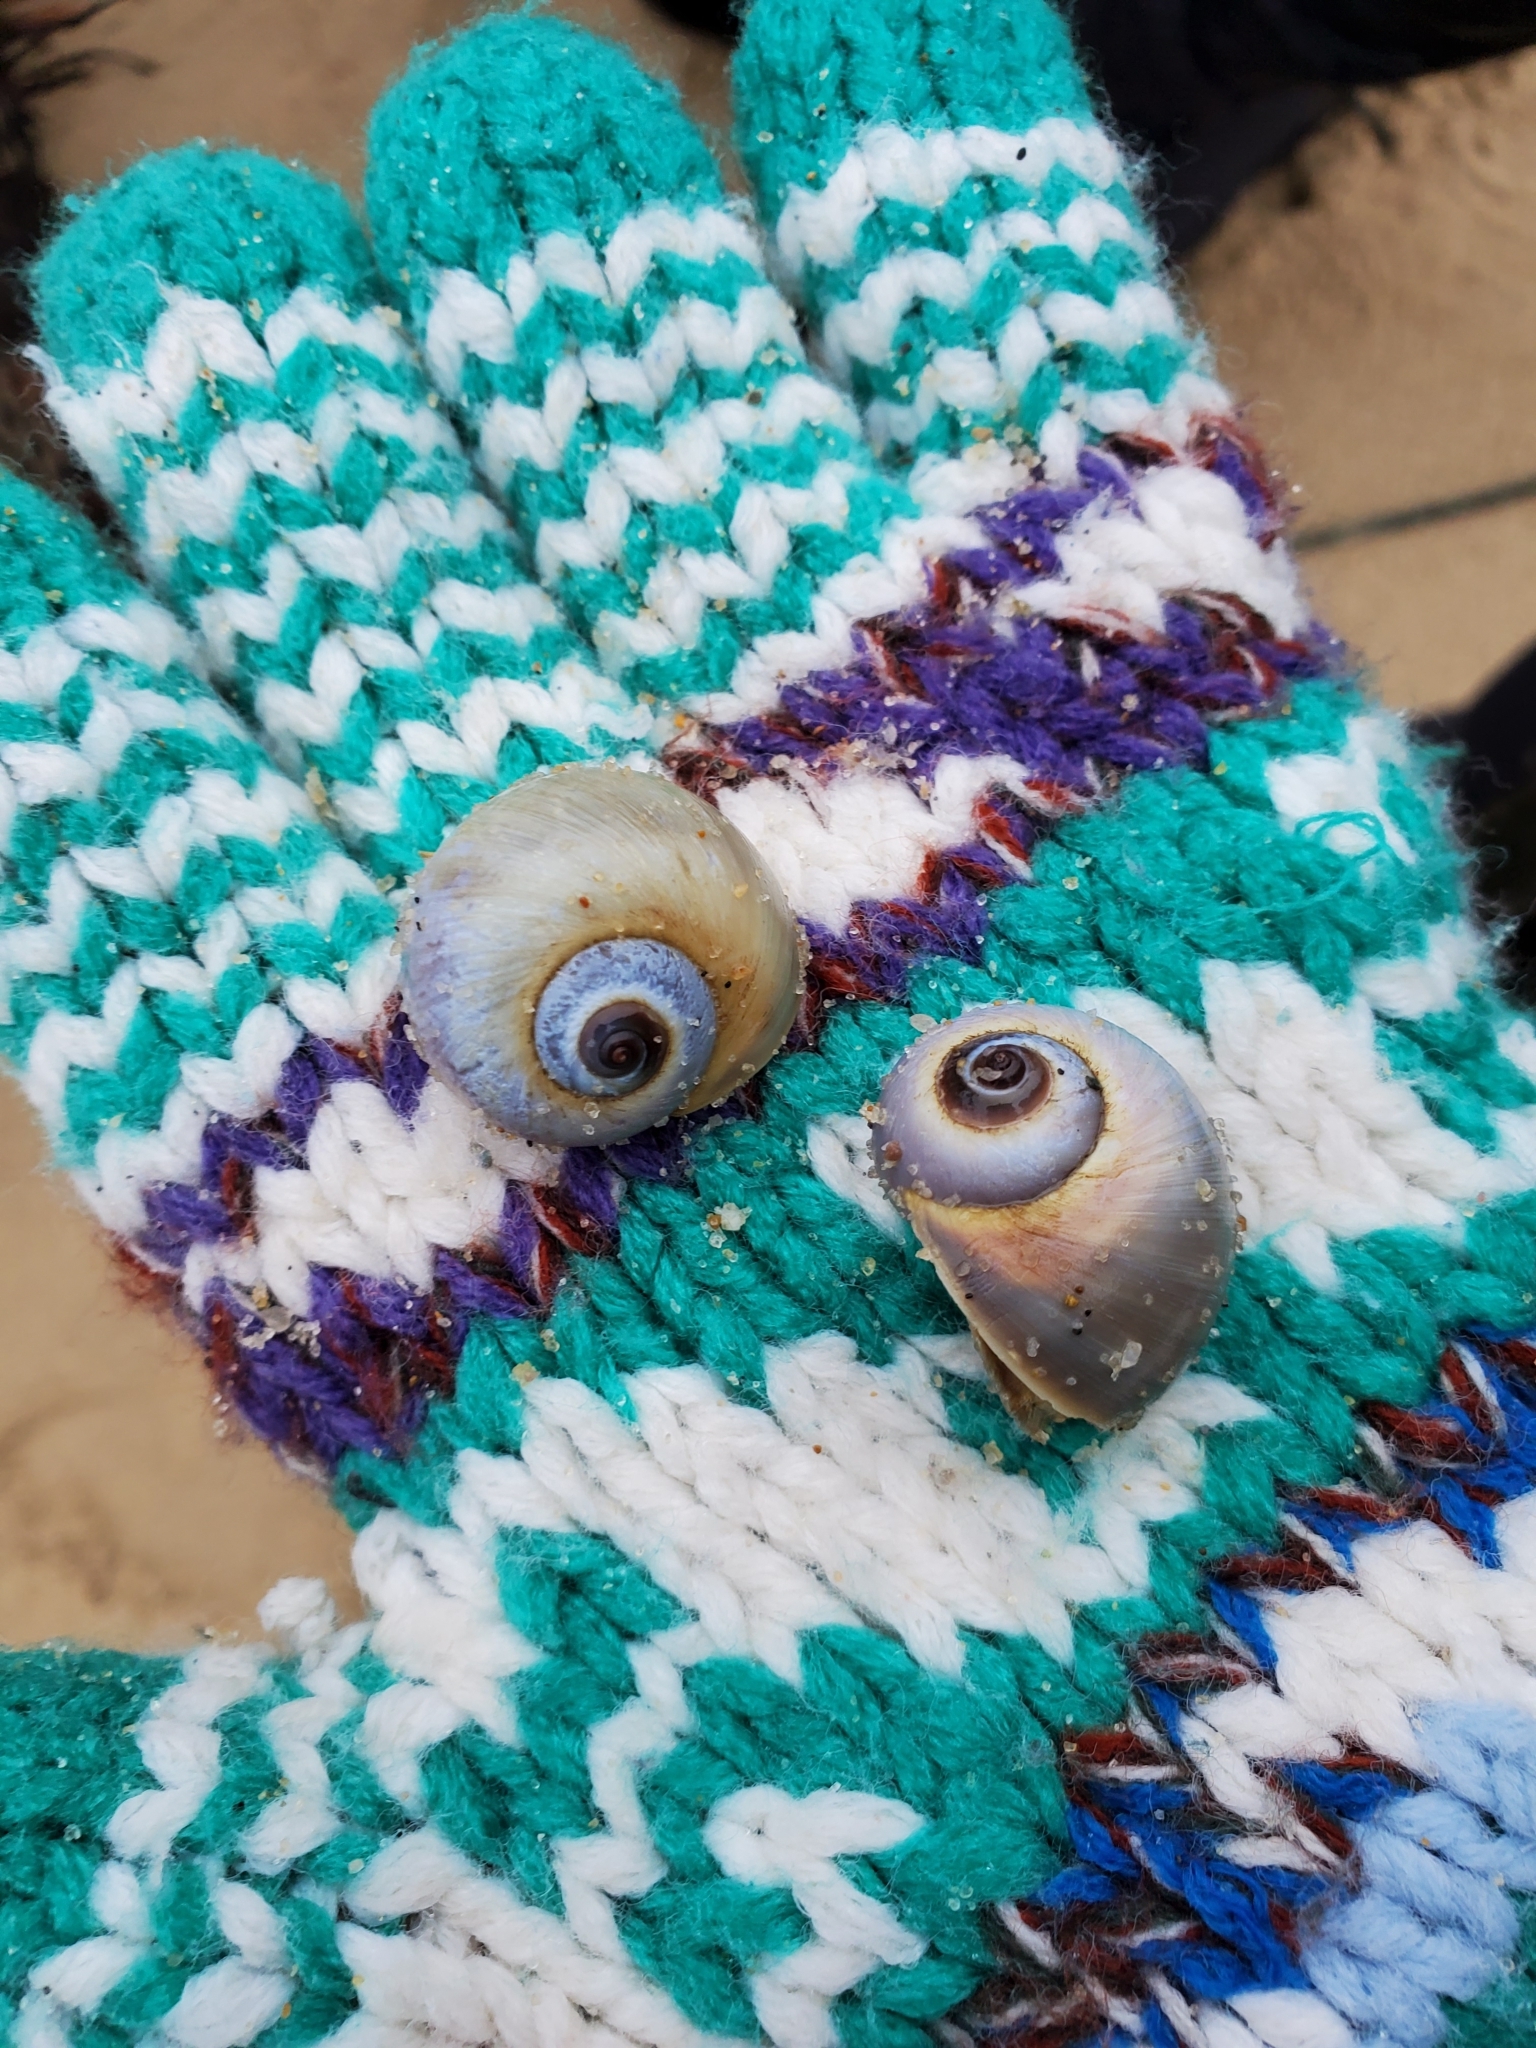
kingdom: Animalia
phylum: Mollusca
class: Gastropoda
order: Littorinimorpha
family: Naticidae
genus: Euspira
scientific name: Euspira heros
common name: Common northern moonsnail
